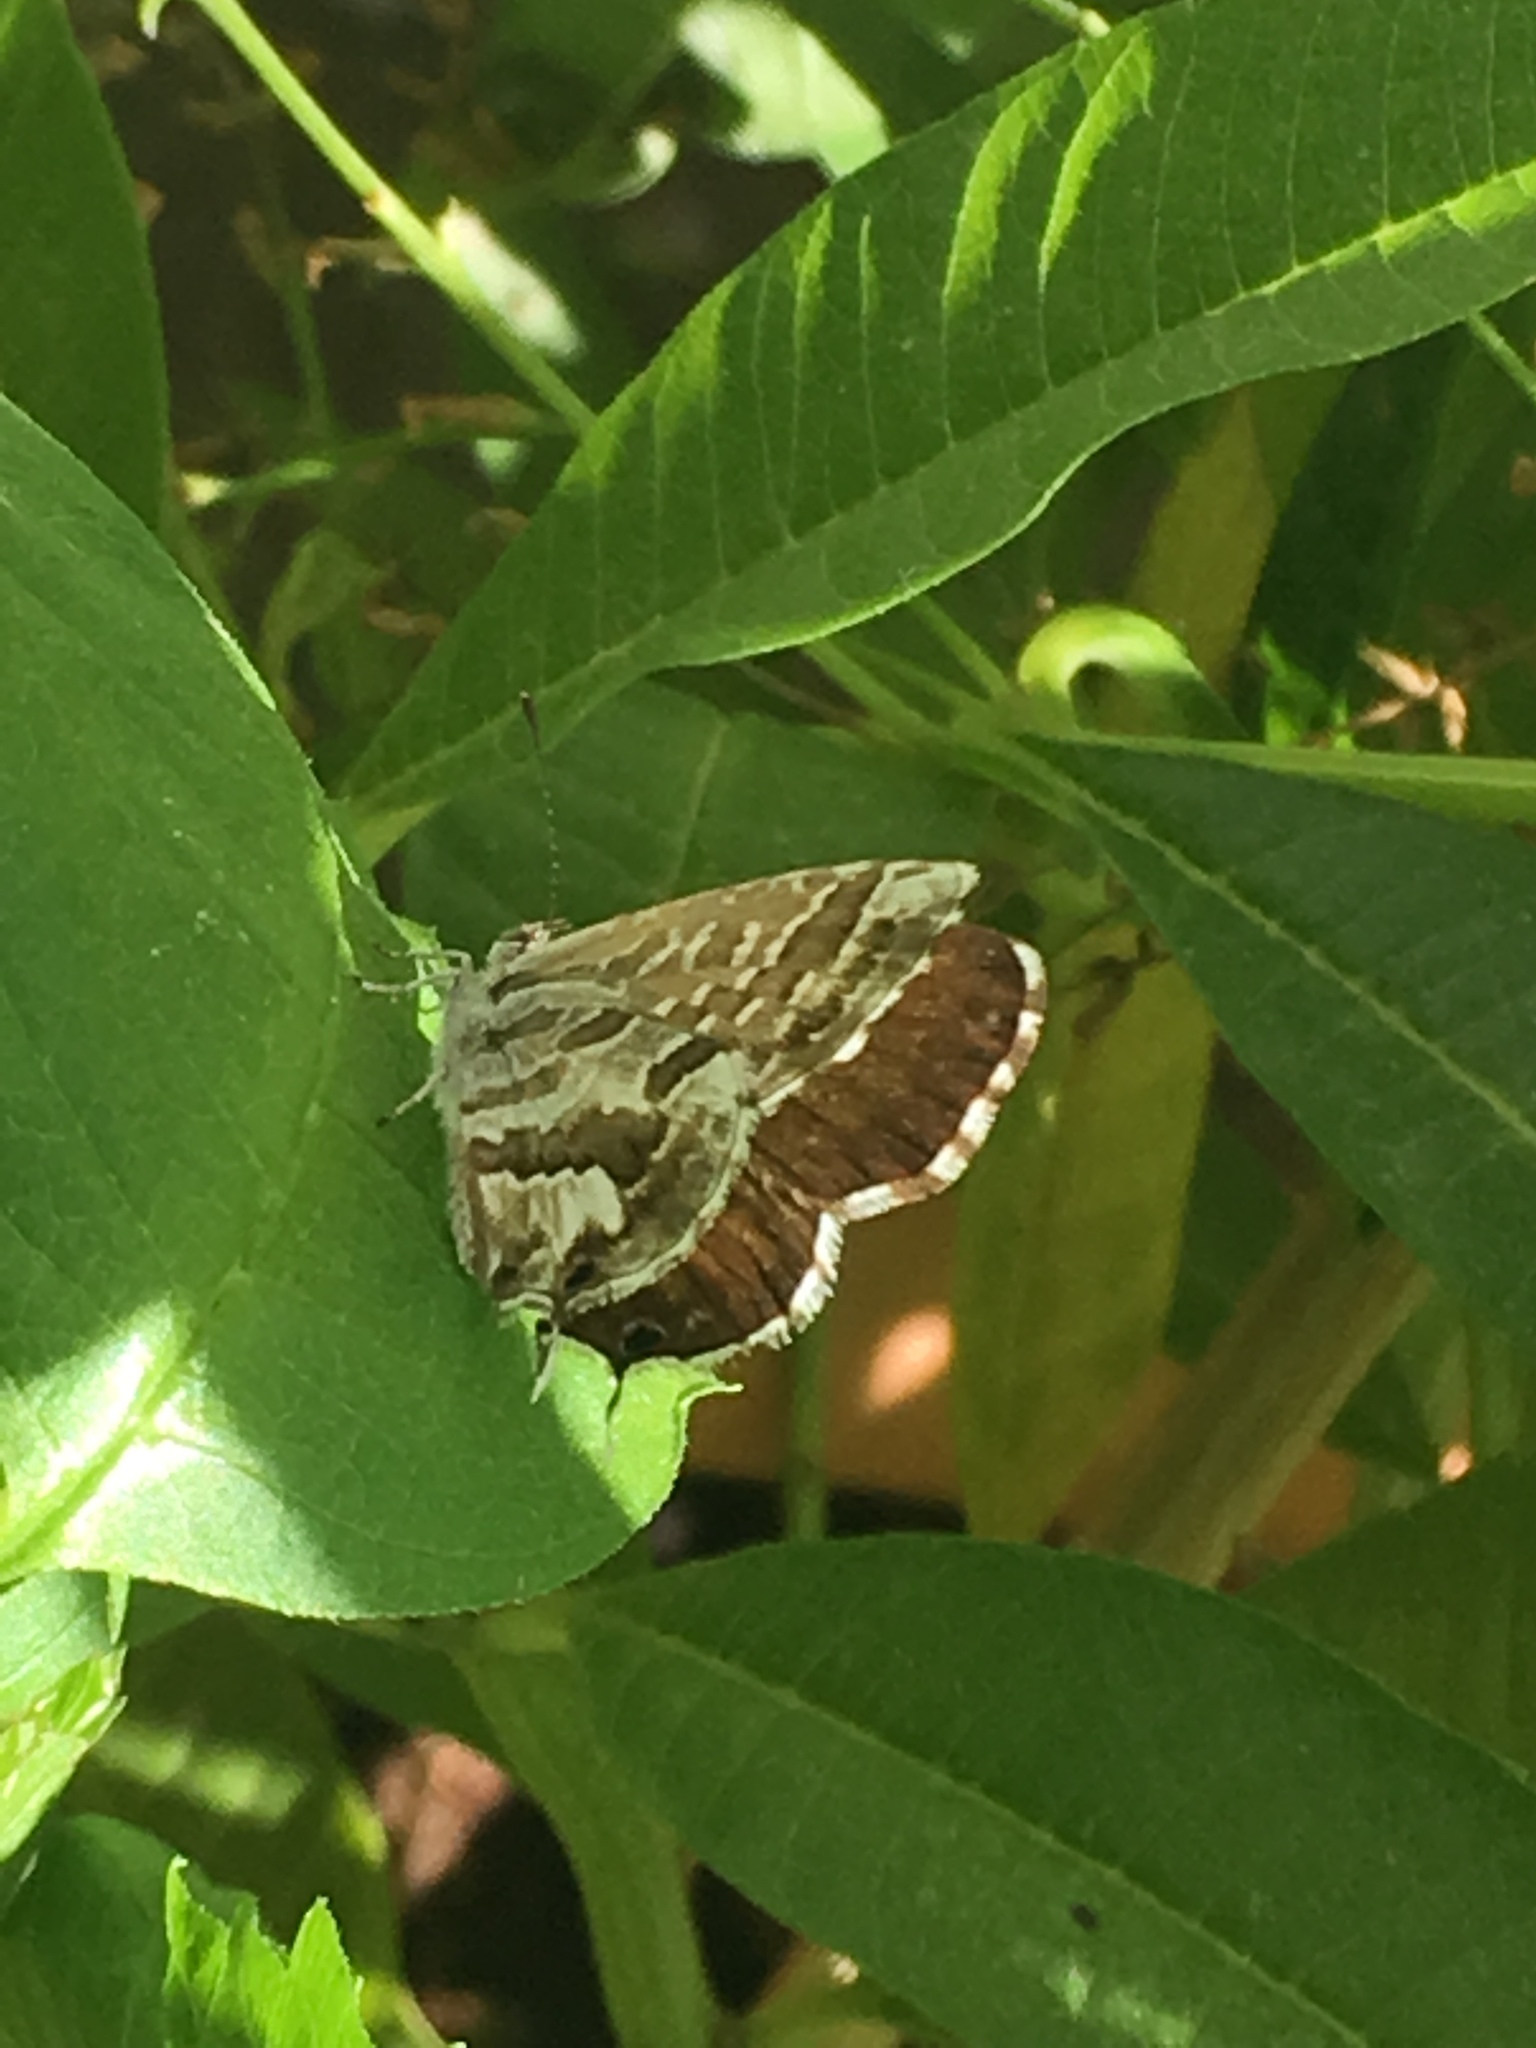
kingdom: Animalia
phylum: Arthropoda
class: Insecta
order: Lepidoptera
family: Lycaenidae
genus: Cacyreus
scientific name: Cacyreus marshalli
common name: Geranium bronze
